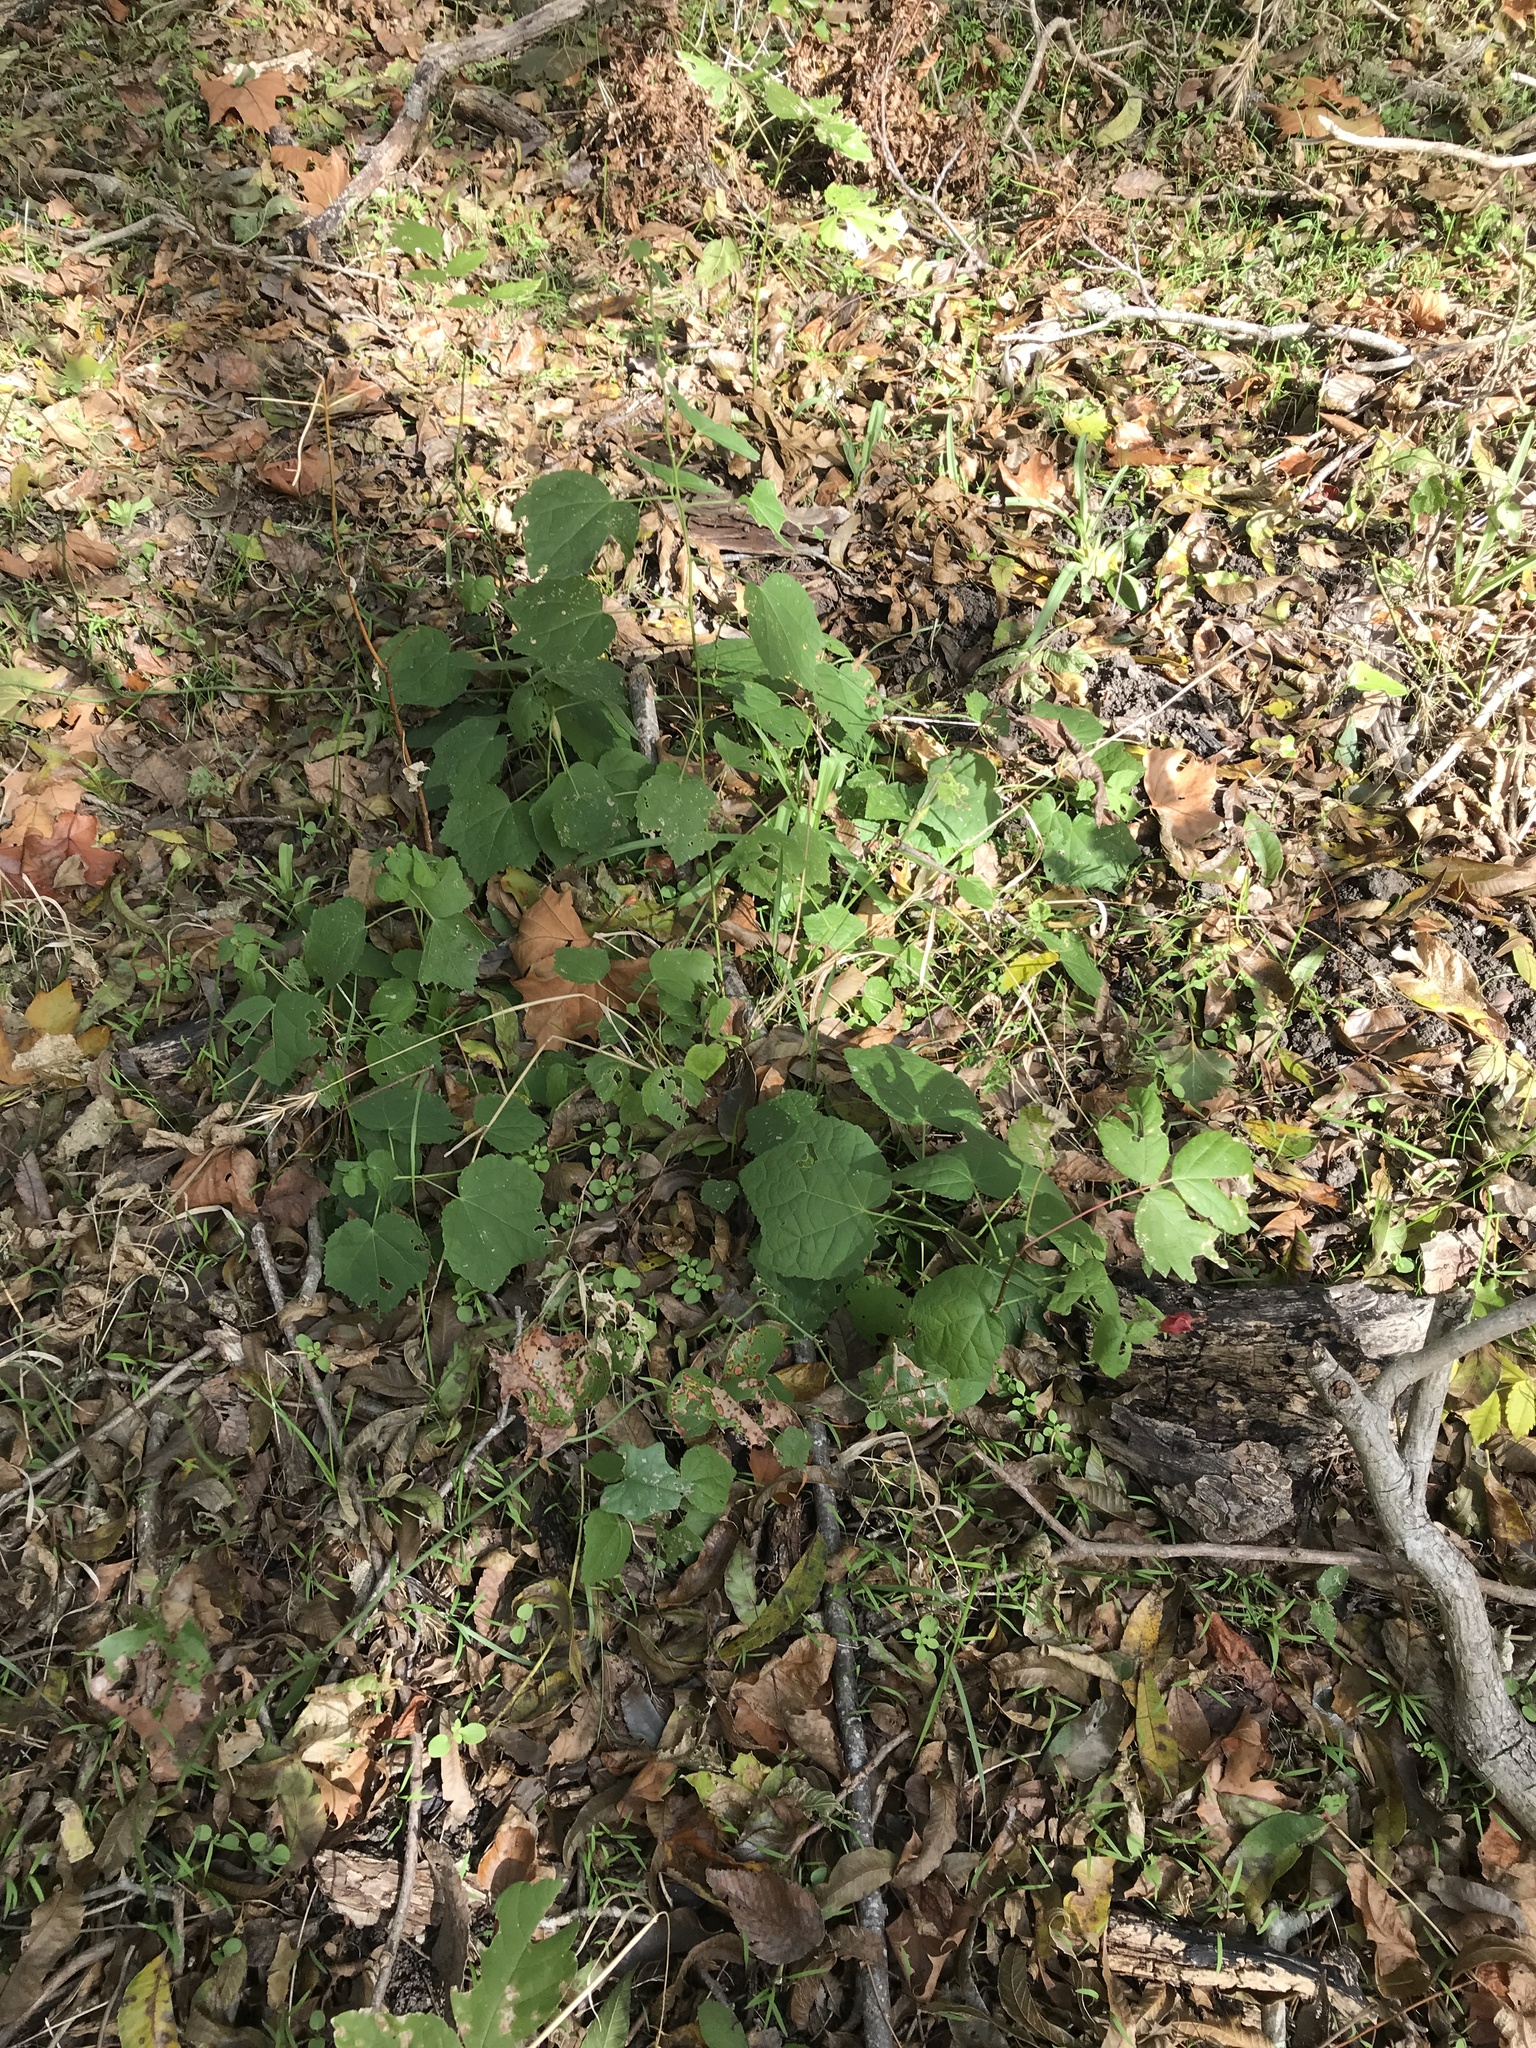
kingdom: Plantae
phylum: Tracheophyta
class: Magnoliopsida
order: Malvales
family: Malvaceae
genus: Malvaviscus
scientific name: Malvaviscus arboreus
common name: Wax mallow
